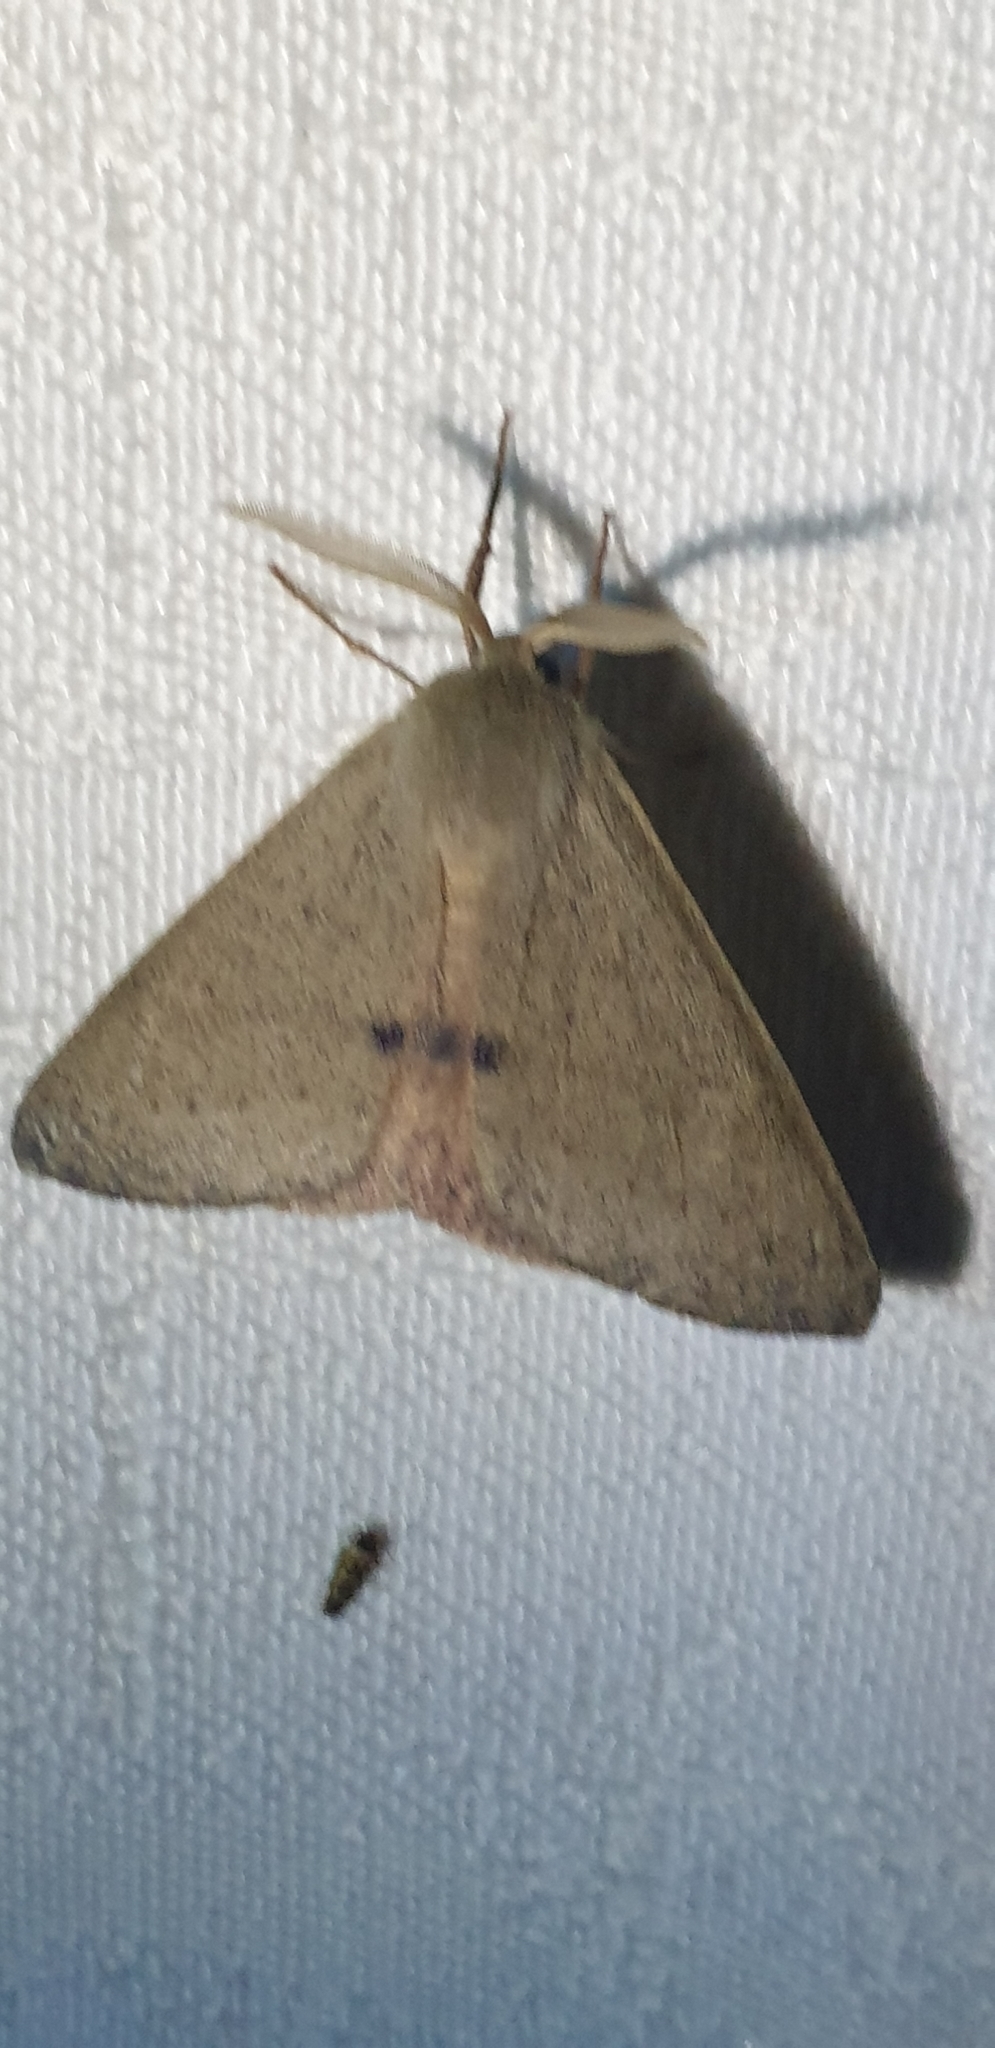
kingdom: Animalia
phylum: Arthropoda
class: Insecta
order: Lepidoptera
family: Geometridae
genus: Arhodia
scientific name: Arhodia lasiocamparia
